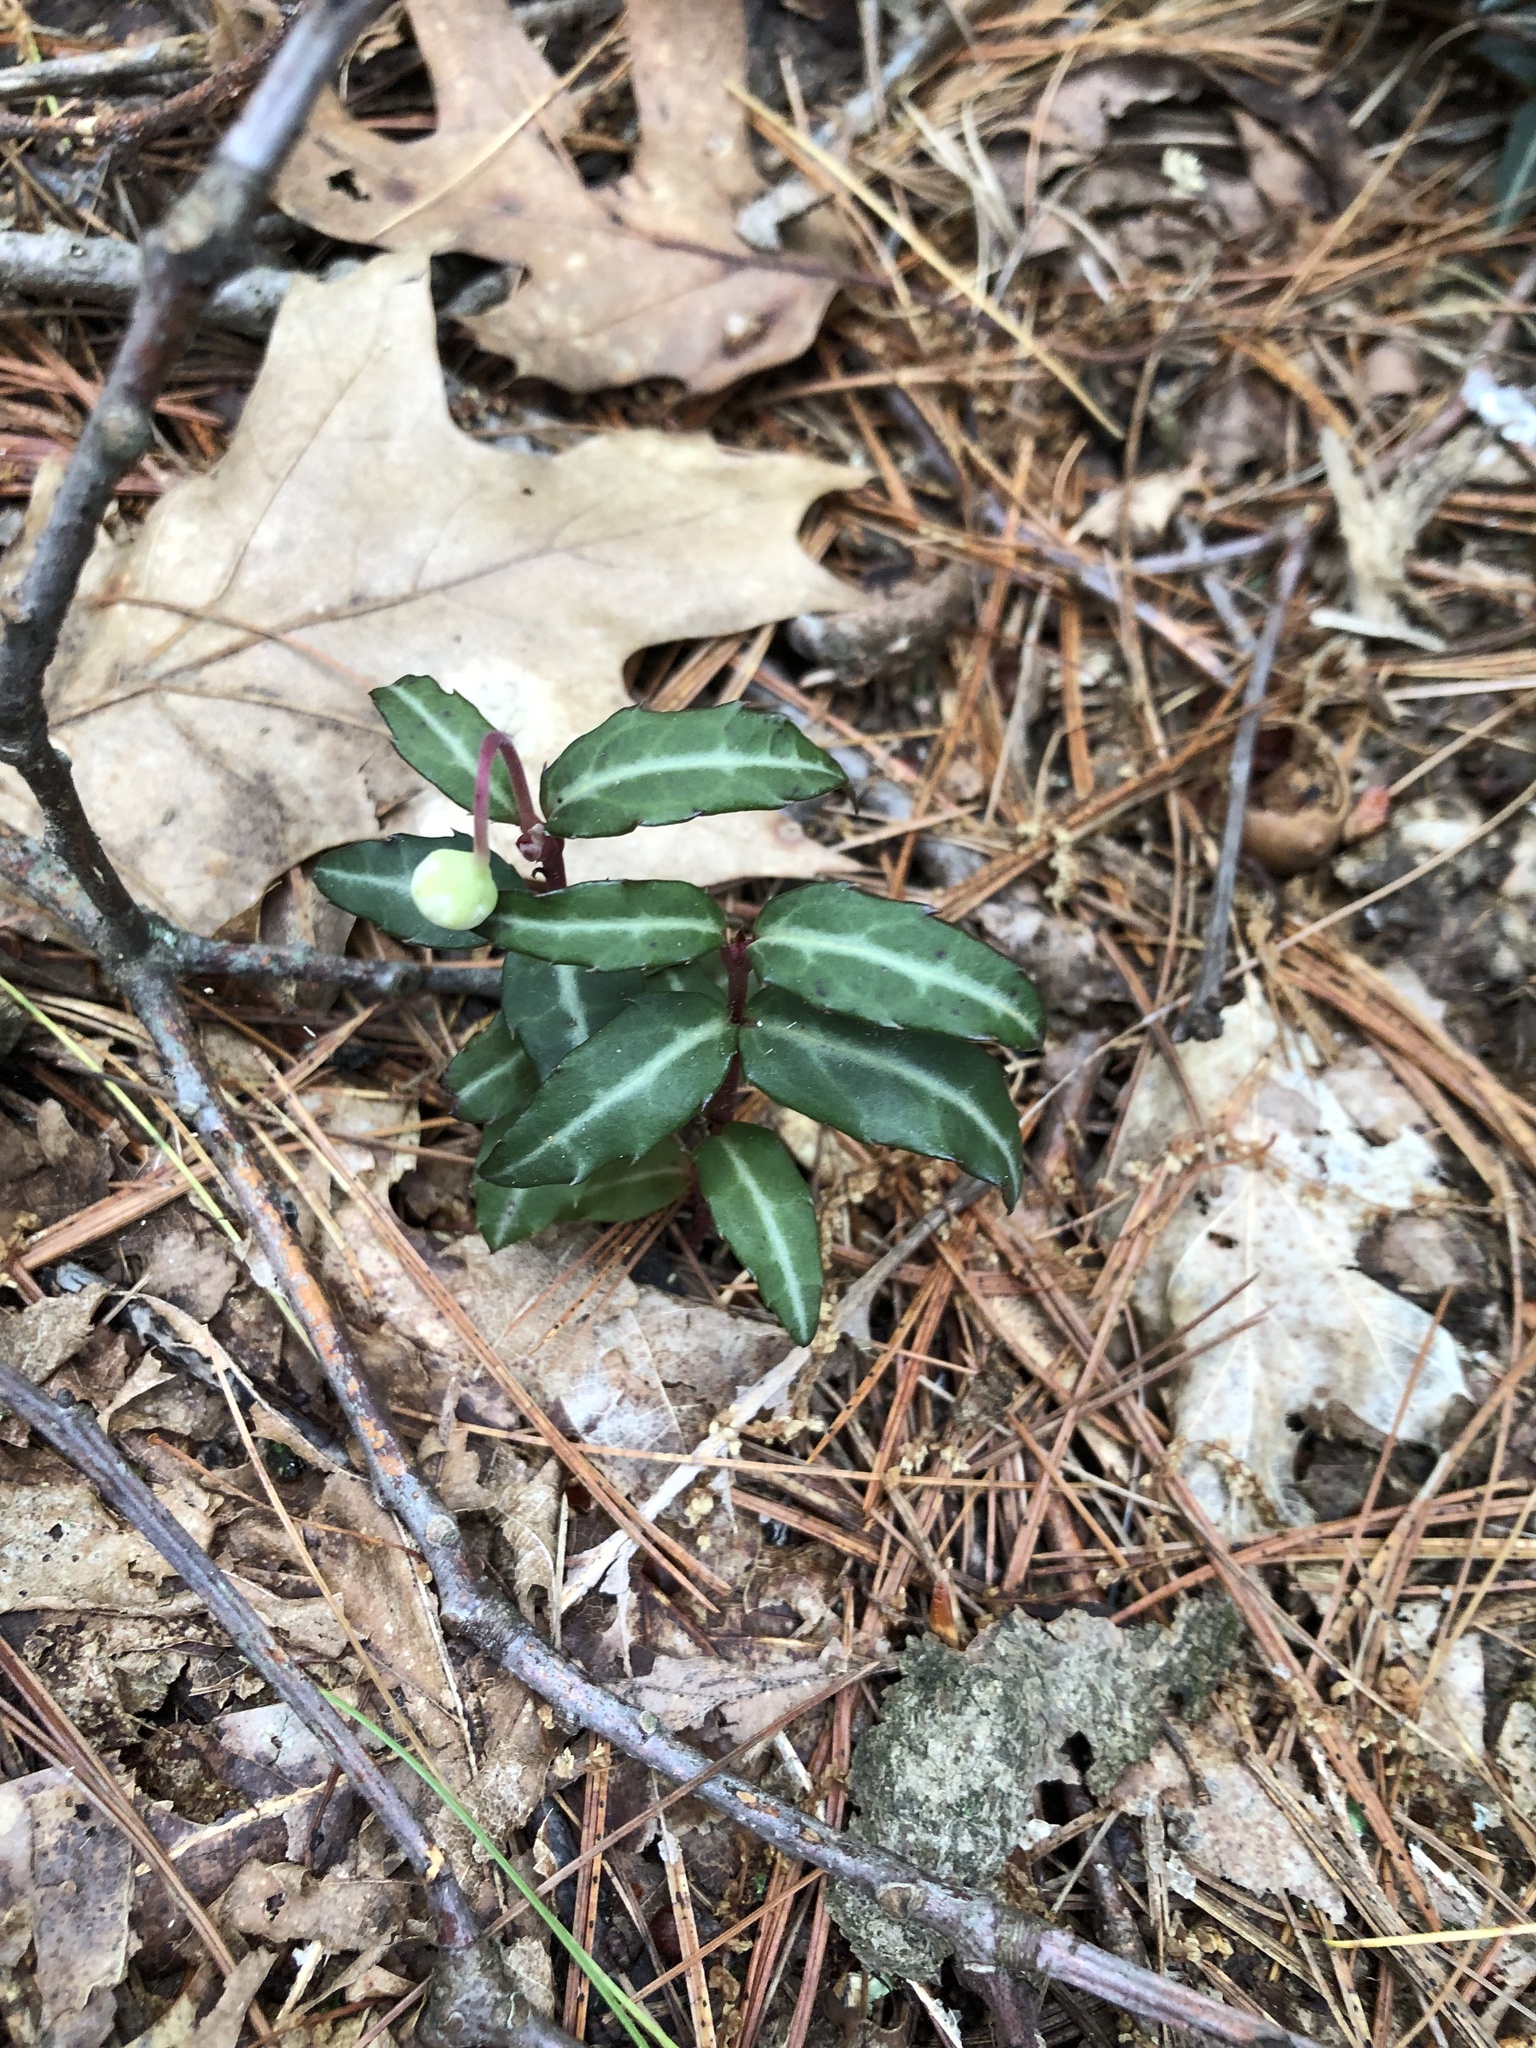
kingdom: Plantae
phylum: Tracheophyta
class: Magnoliopsida
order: Ericales
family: Ericaceae
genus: Chimaphila
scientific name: Chimaphila maculata
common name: Spotted pipsissewa
